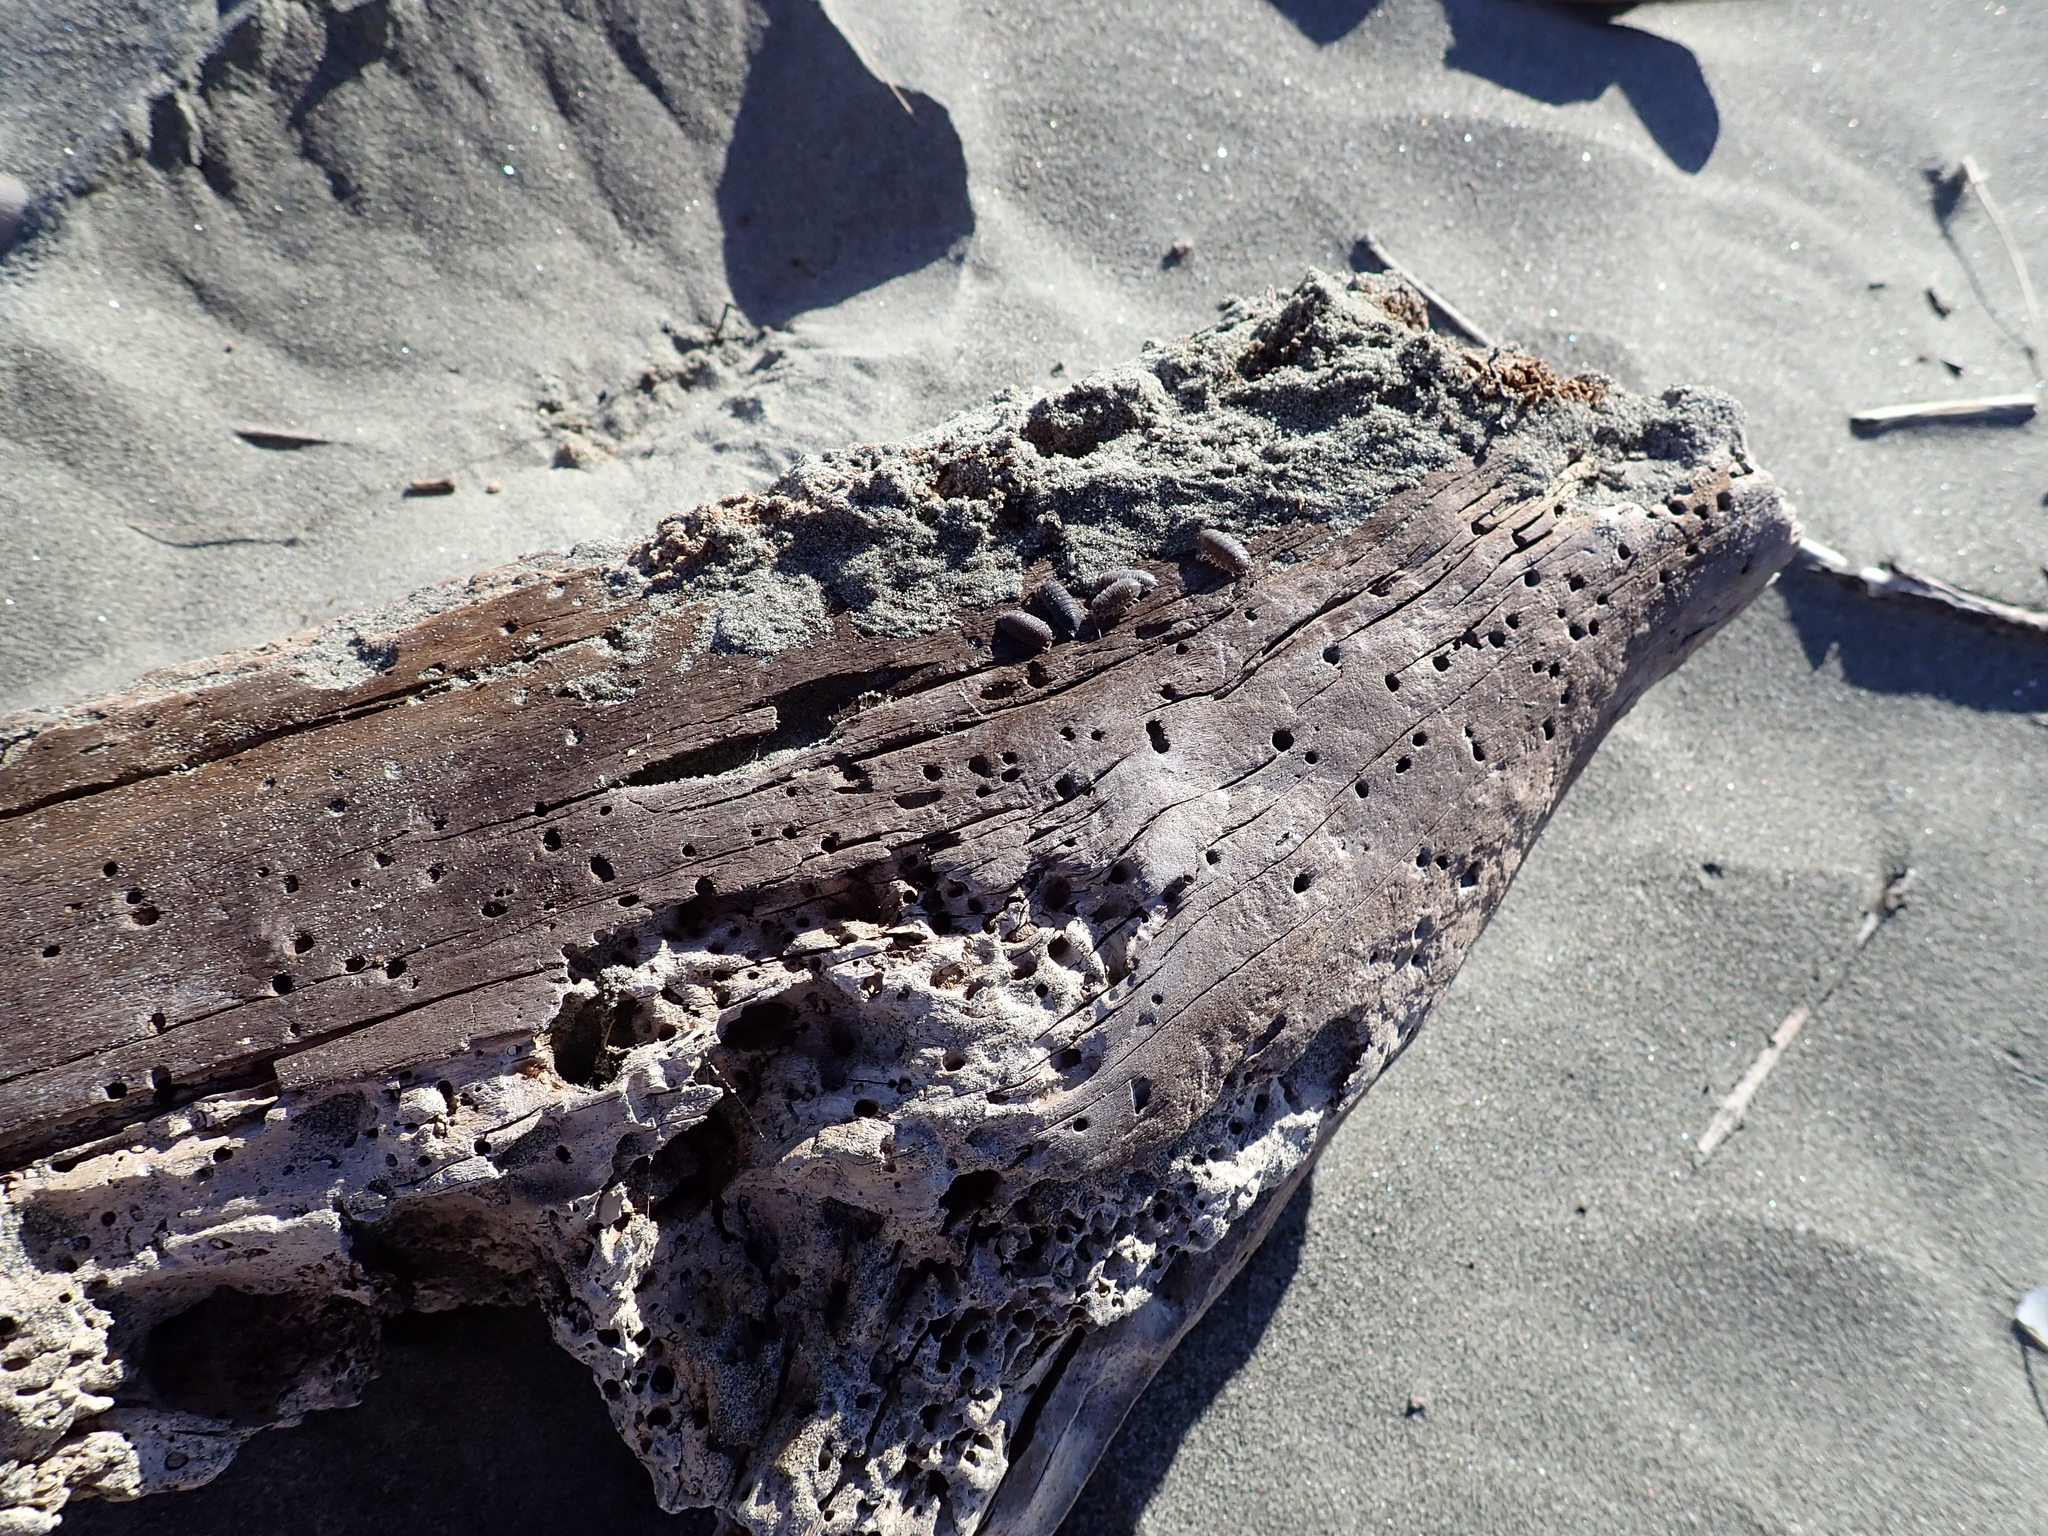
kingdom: Animalia
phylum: Arthropoda
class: Malacostraca
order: Isopoda
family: Porcellionidae
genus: Porcellio
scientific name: Porcellio scaber
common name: Common rough woodlouse
